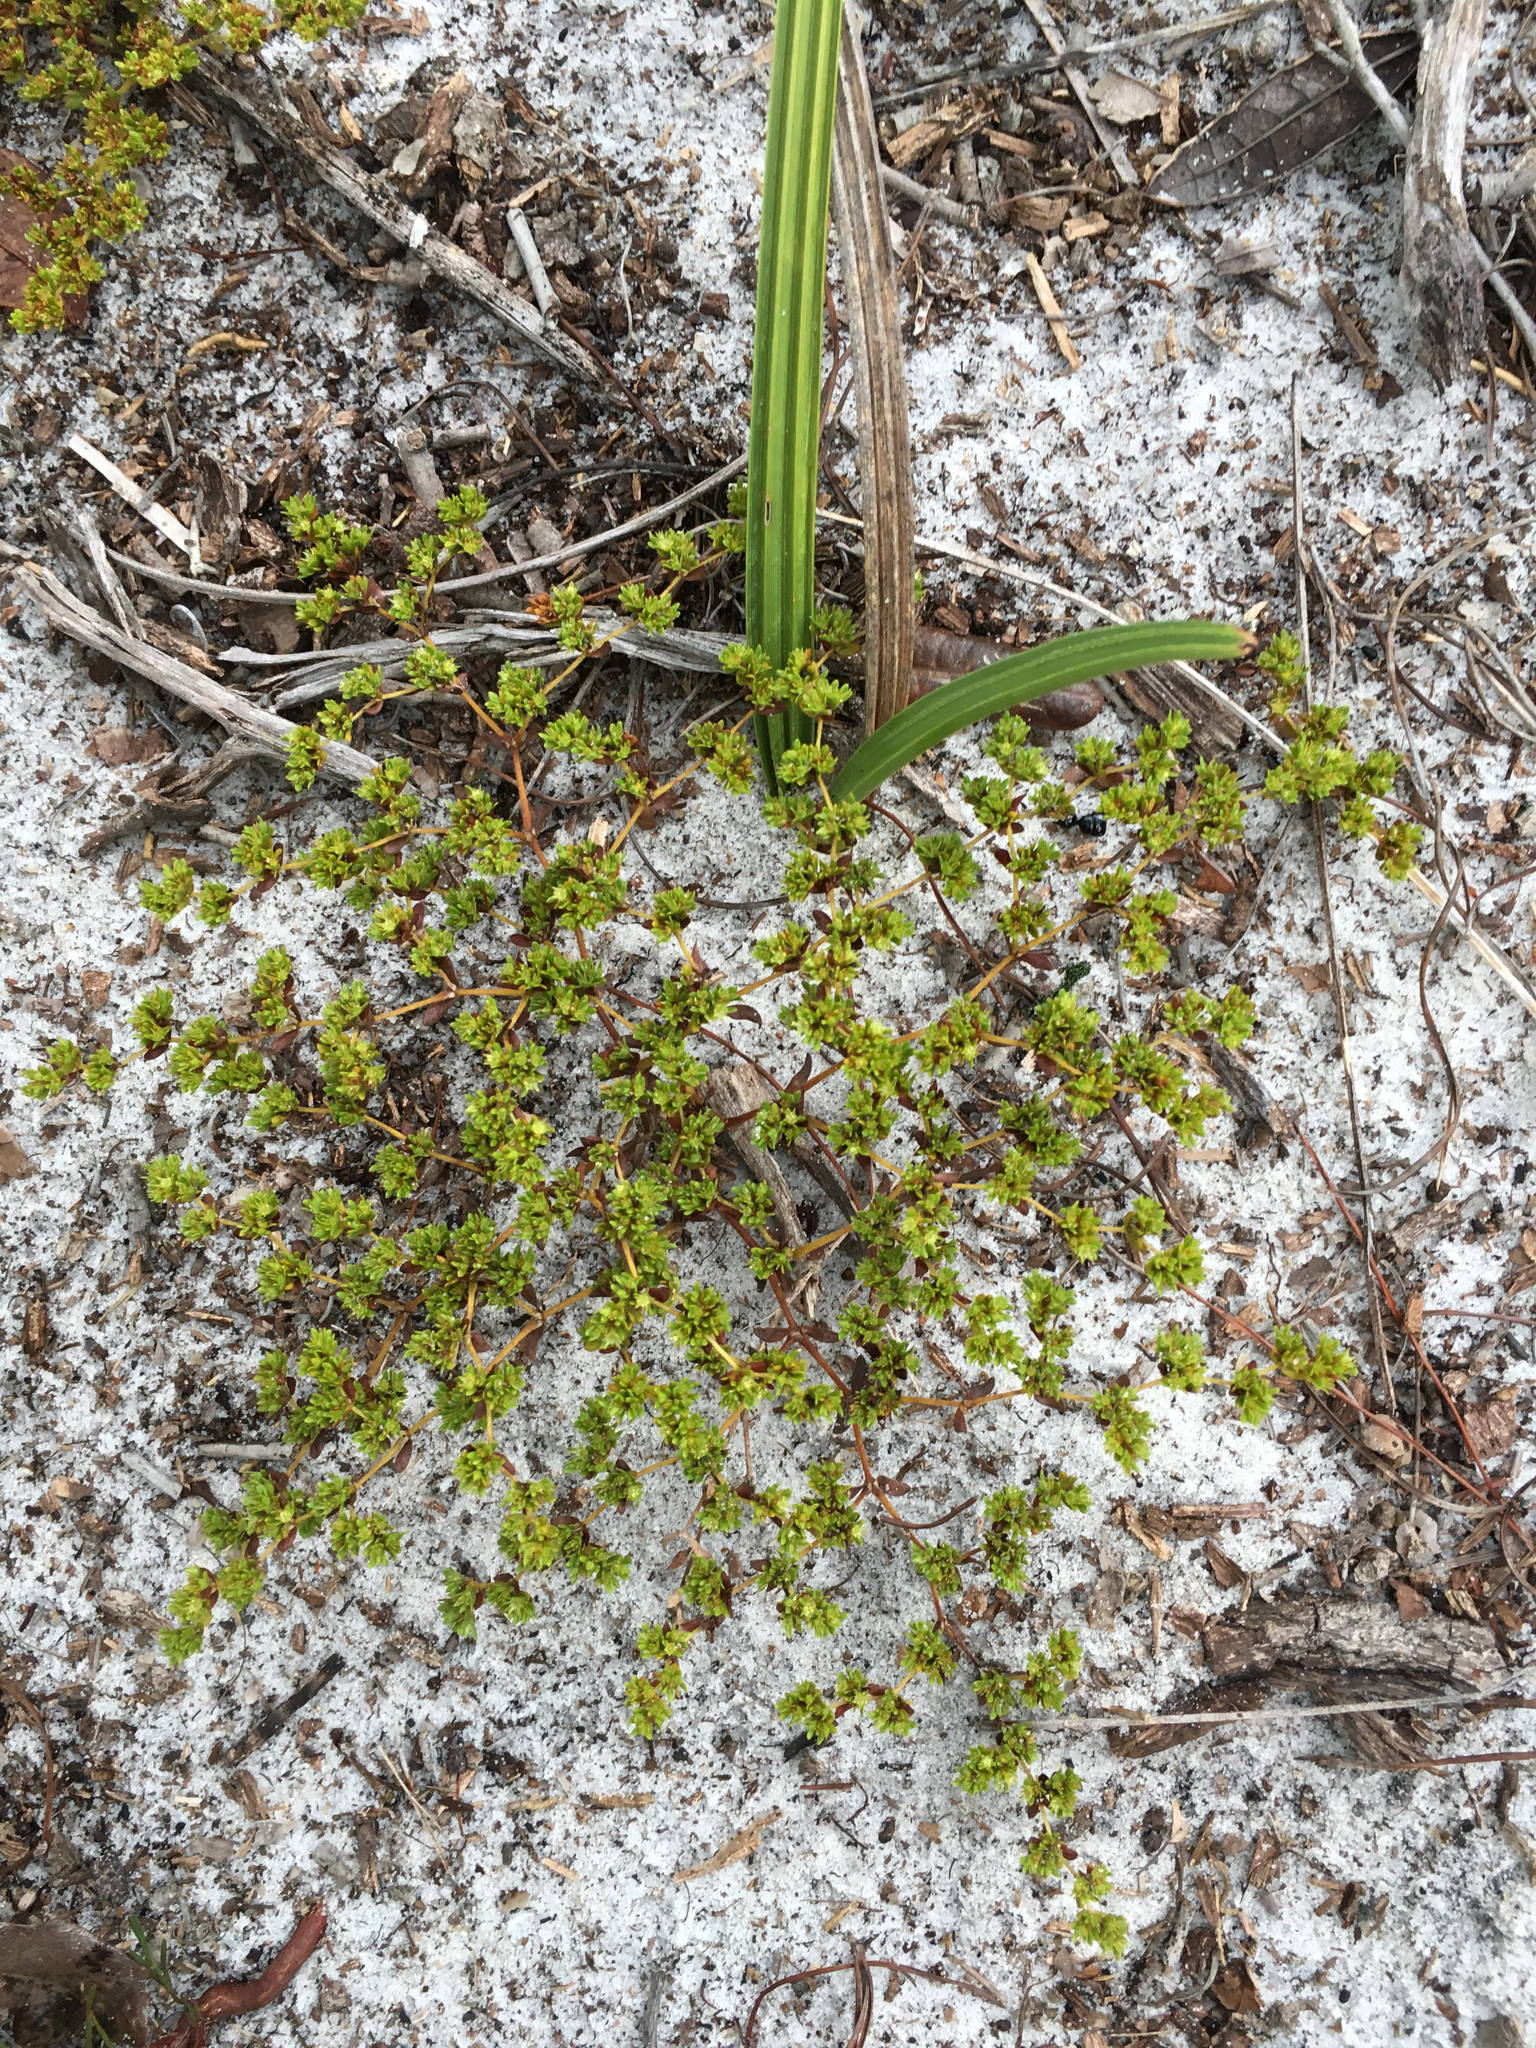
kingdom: Plantae
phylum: Tracheophyta
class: Magnoliopsida
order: Caryophyllales
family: Caryophyllaceae
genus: Paronychia
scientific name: Paronychia herniarioides
